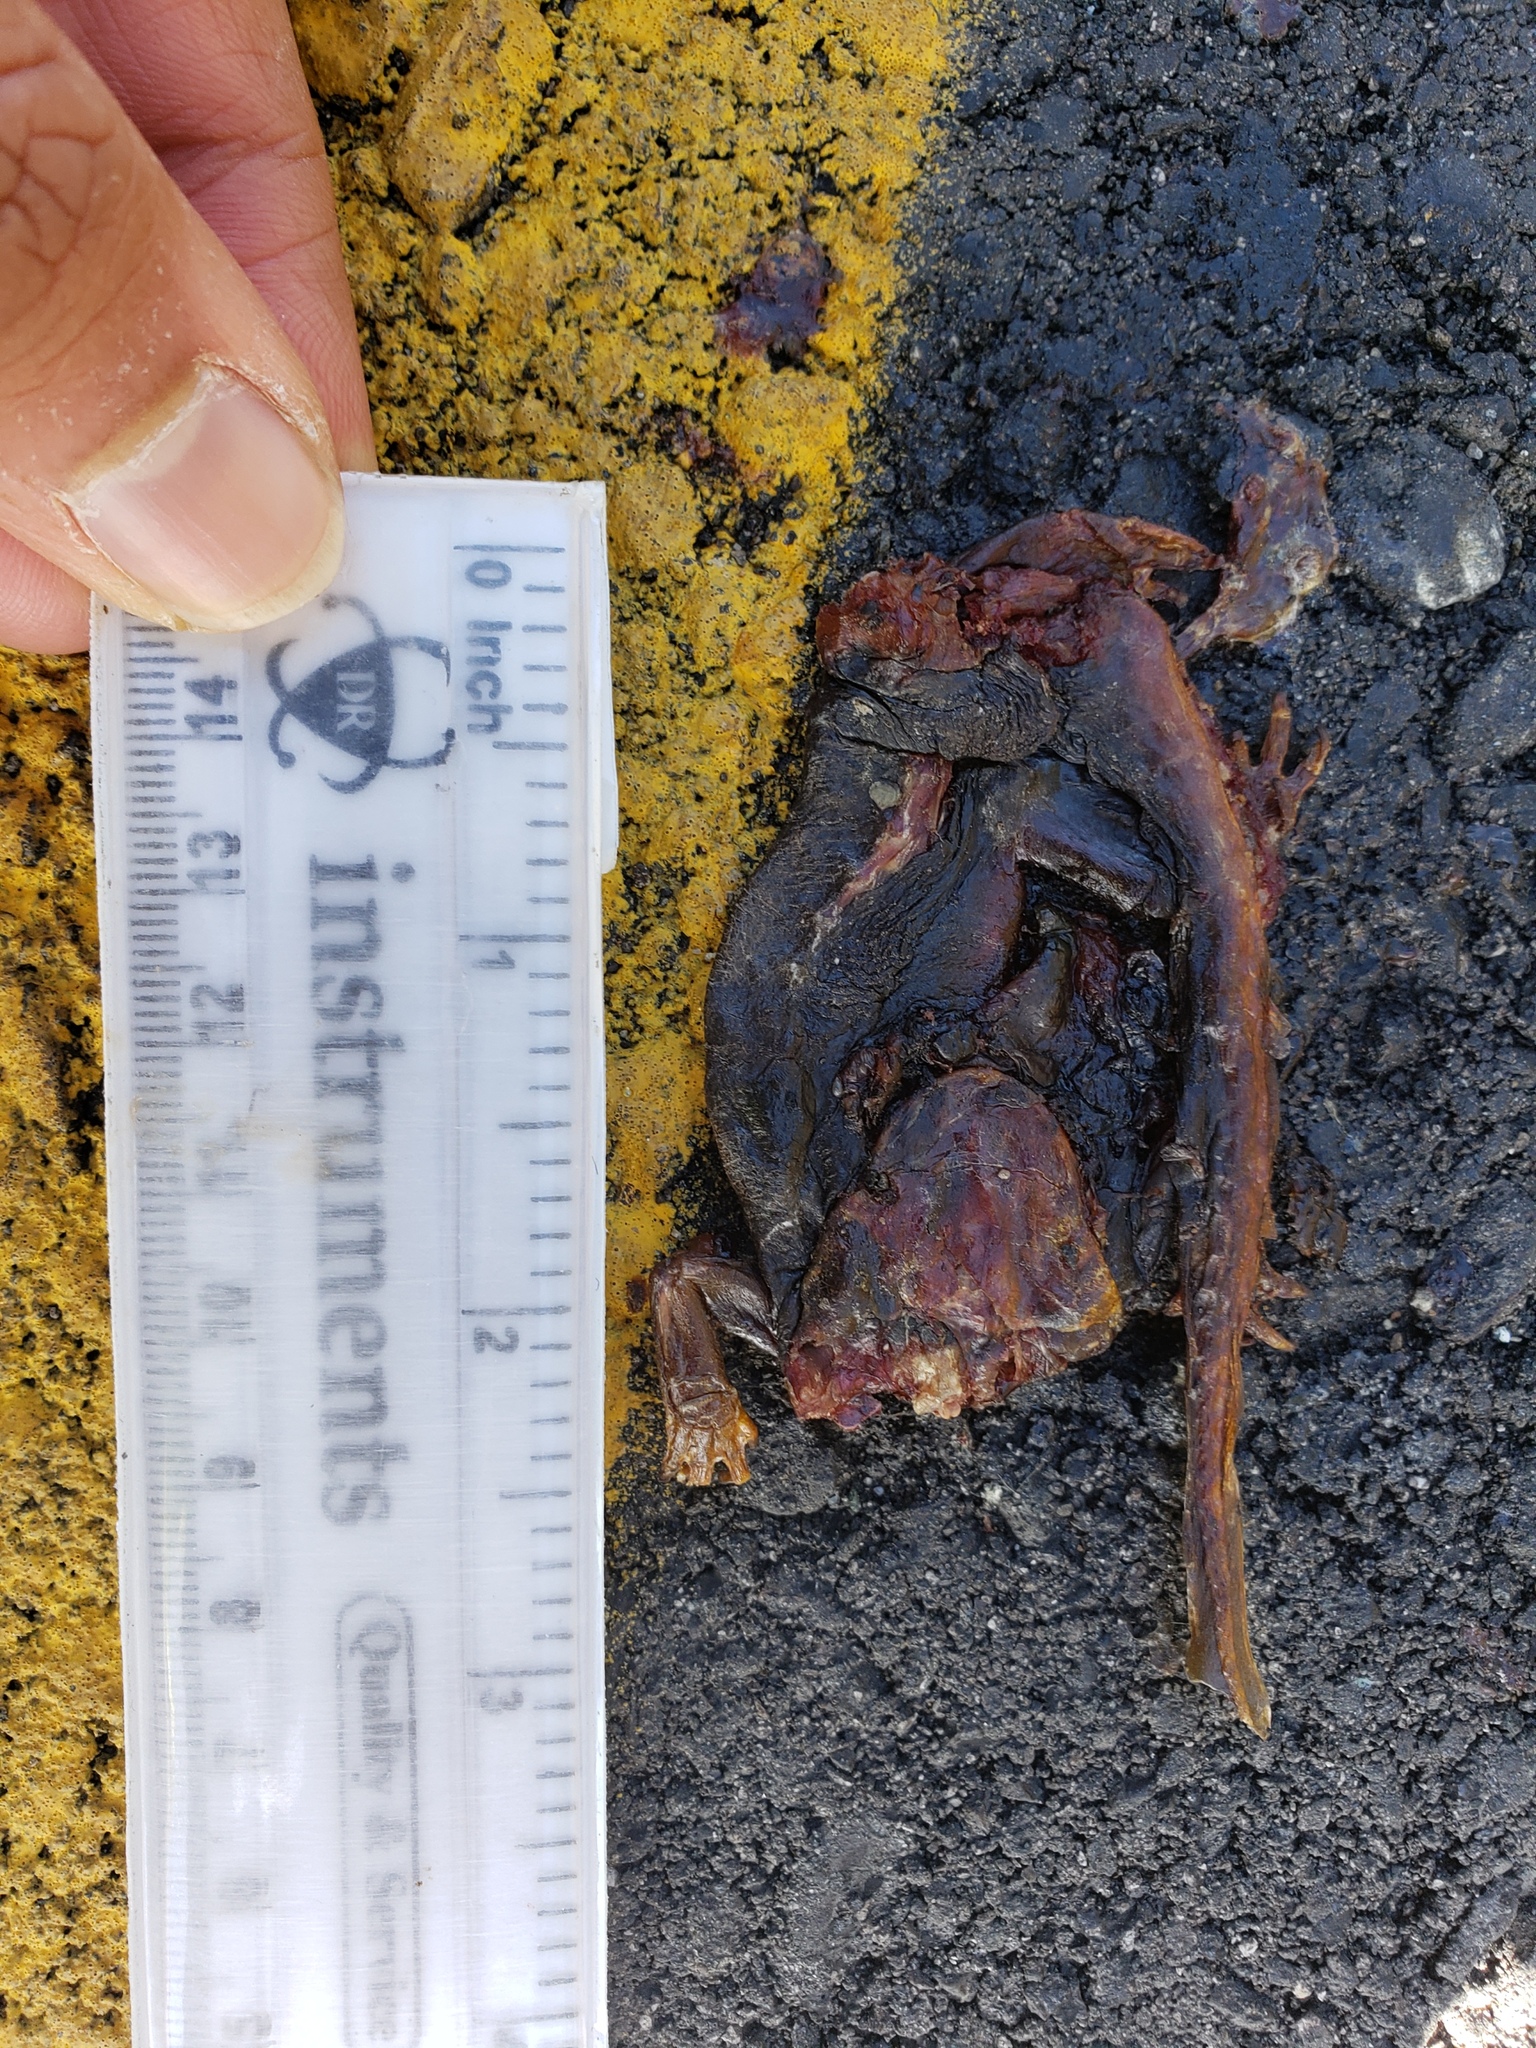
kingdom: Animalia
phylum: Chordata
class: Amphibia
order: Caudata
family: Salamandridae
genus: Taricha
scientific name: Taricha
